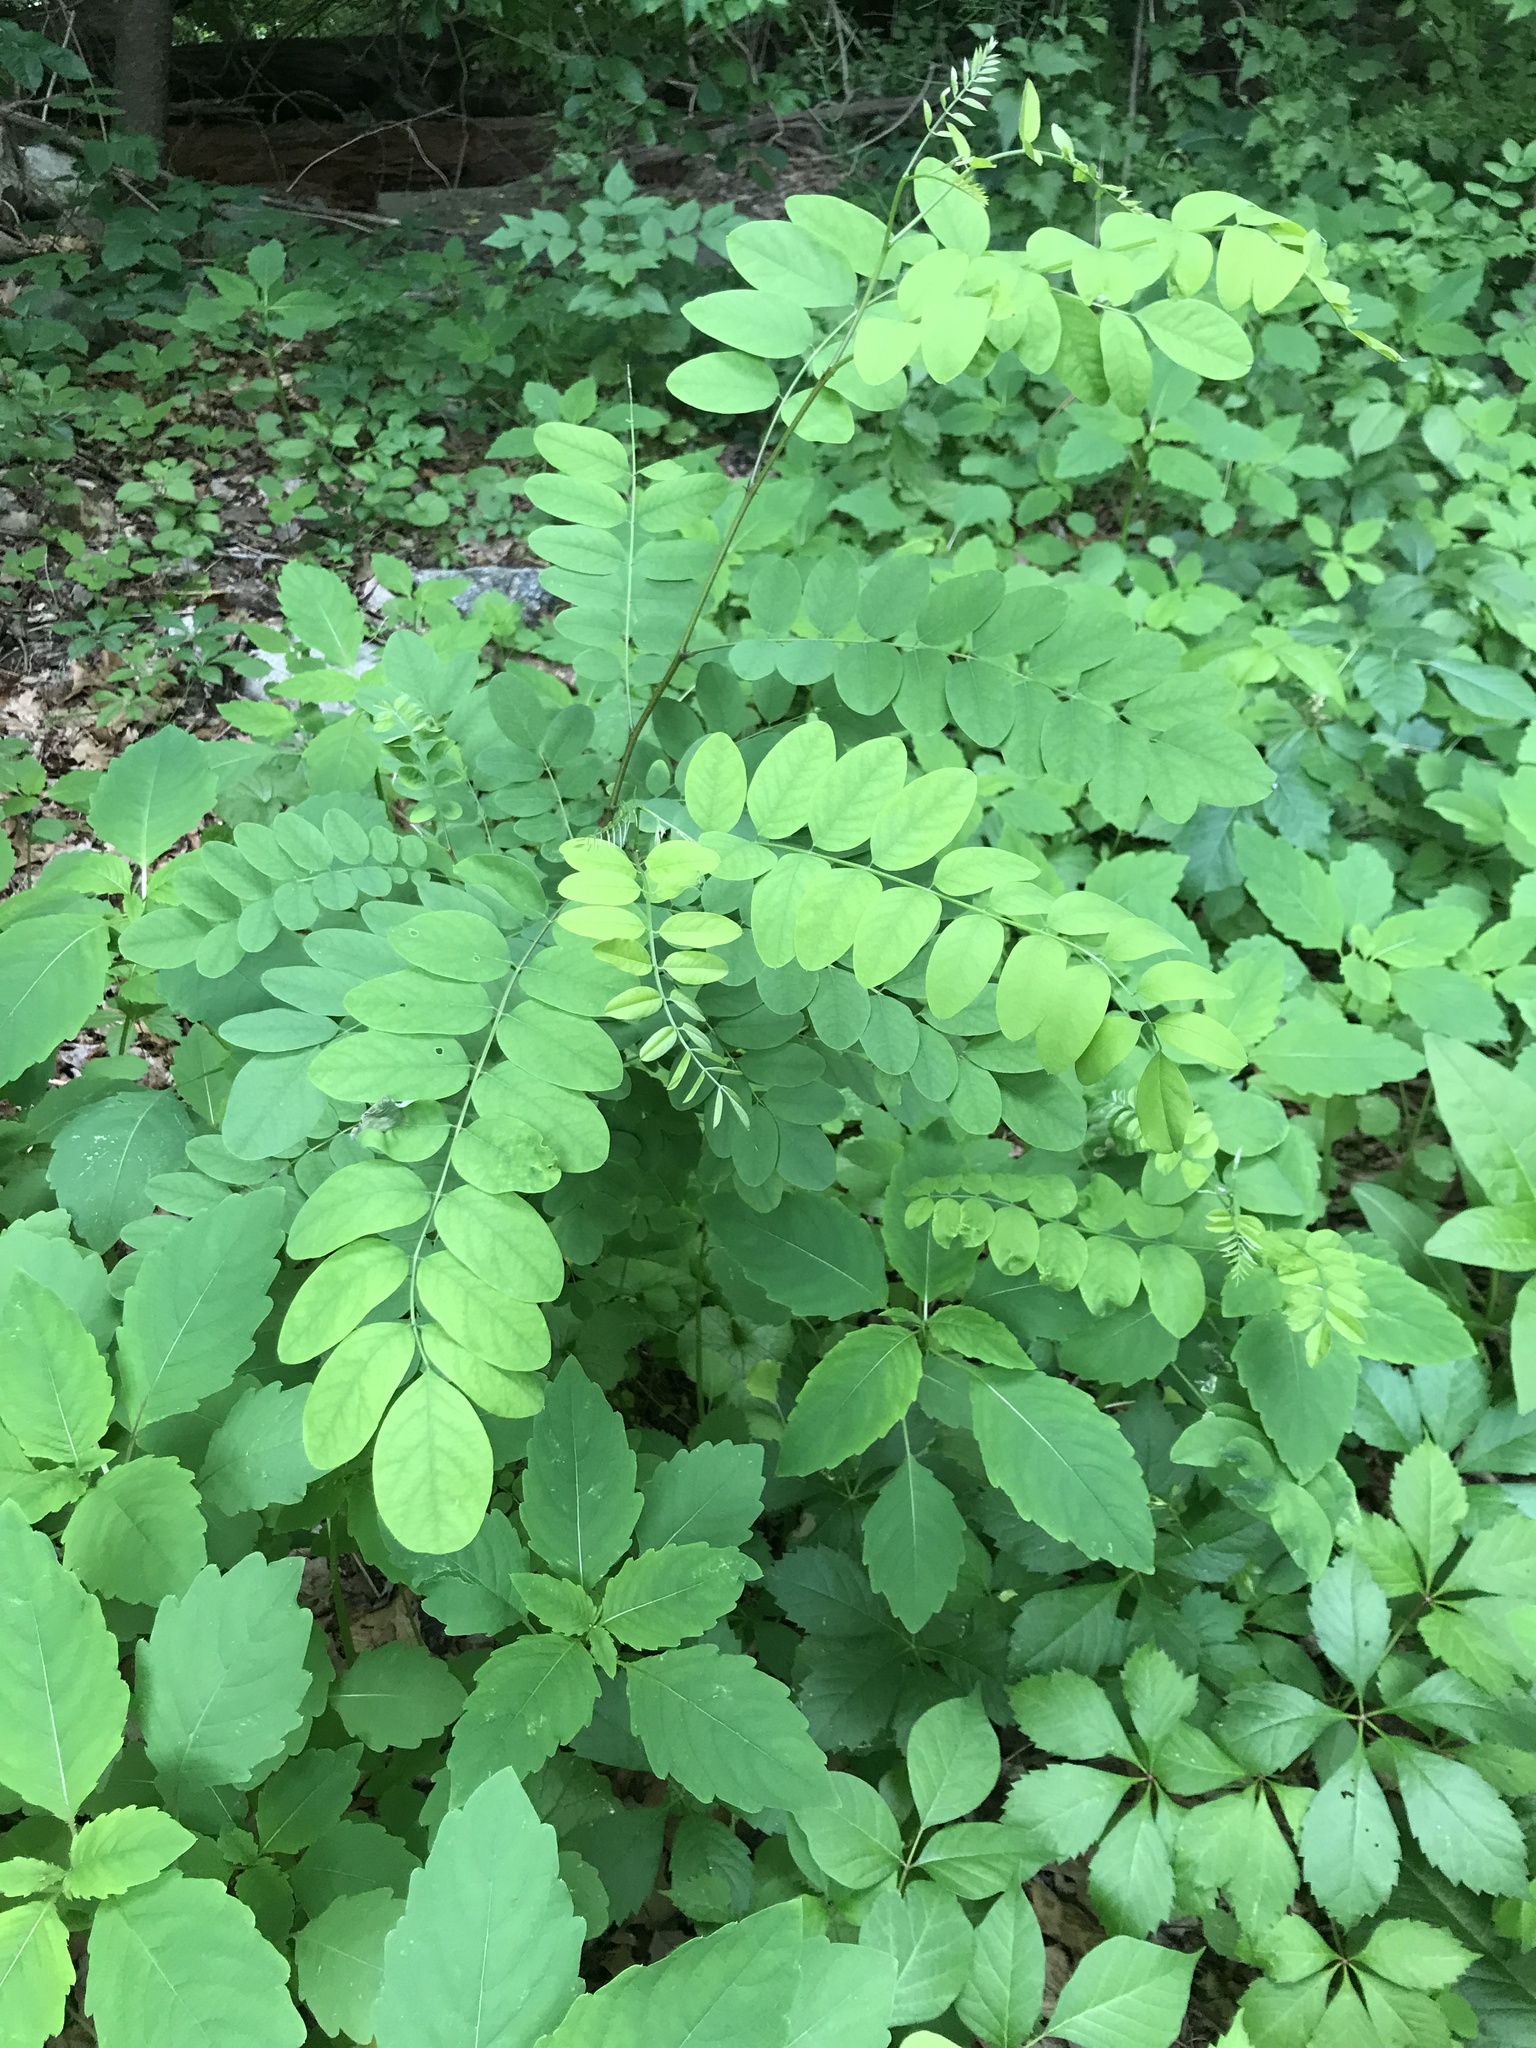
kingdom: Plantae
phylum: Tracheophyta
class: Magnoliopsida
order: Fabales
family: Fabaceae
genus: Robinia
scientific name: Robinia pseudoacacia
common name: Black locust
